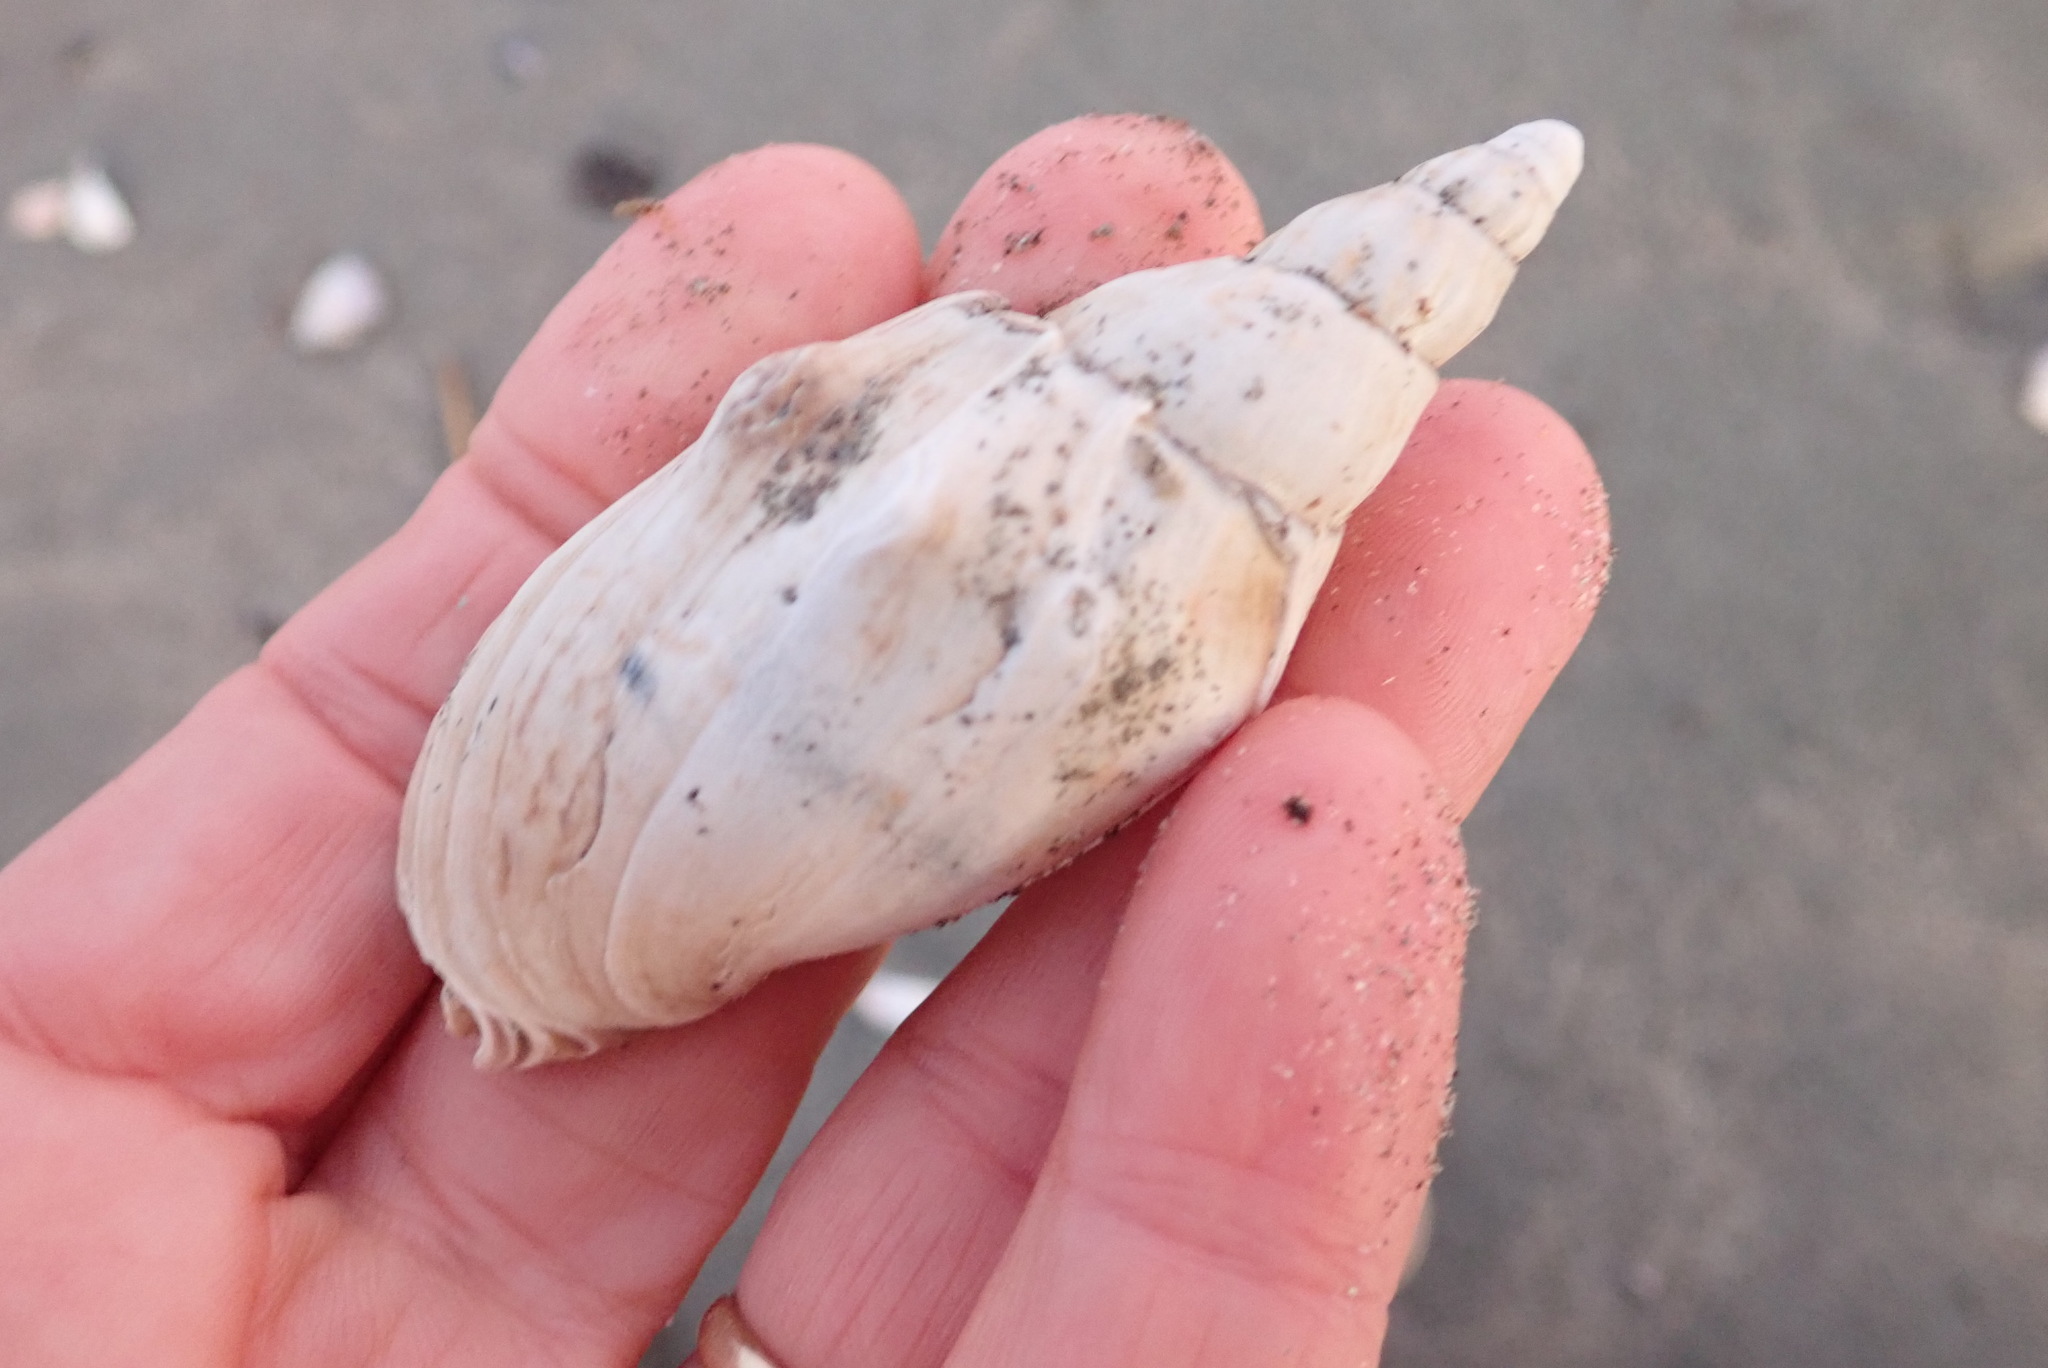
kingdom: Animalia
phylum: Mollusca
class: Gastropoda
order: Neogastropoda
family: Volutidae
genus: Alcithoe
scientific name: Alcithoe arabica
